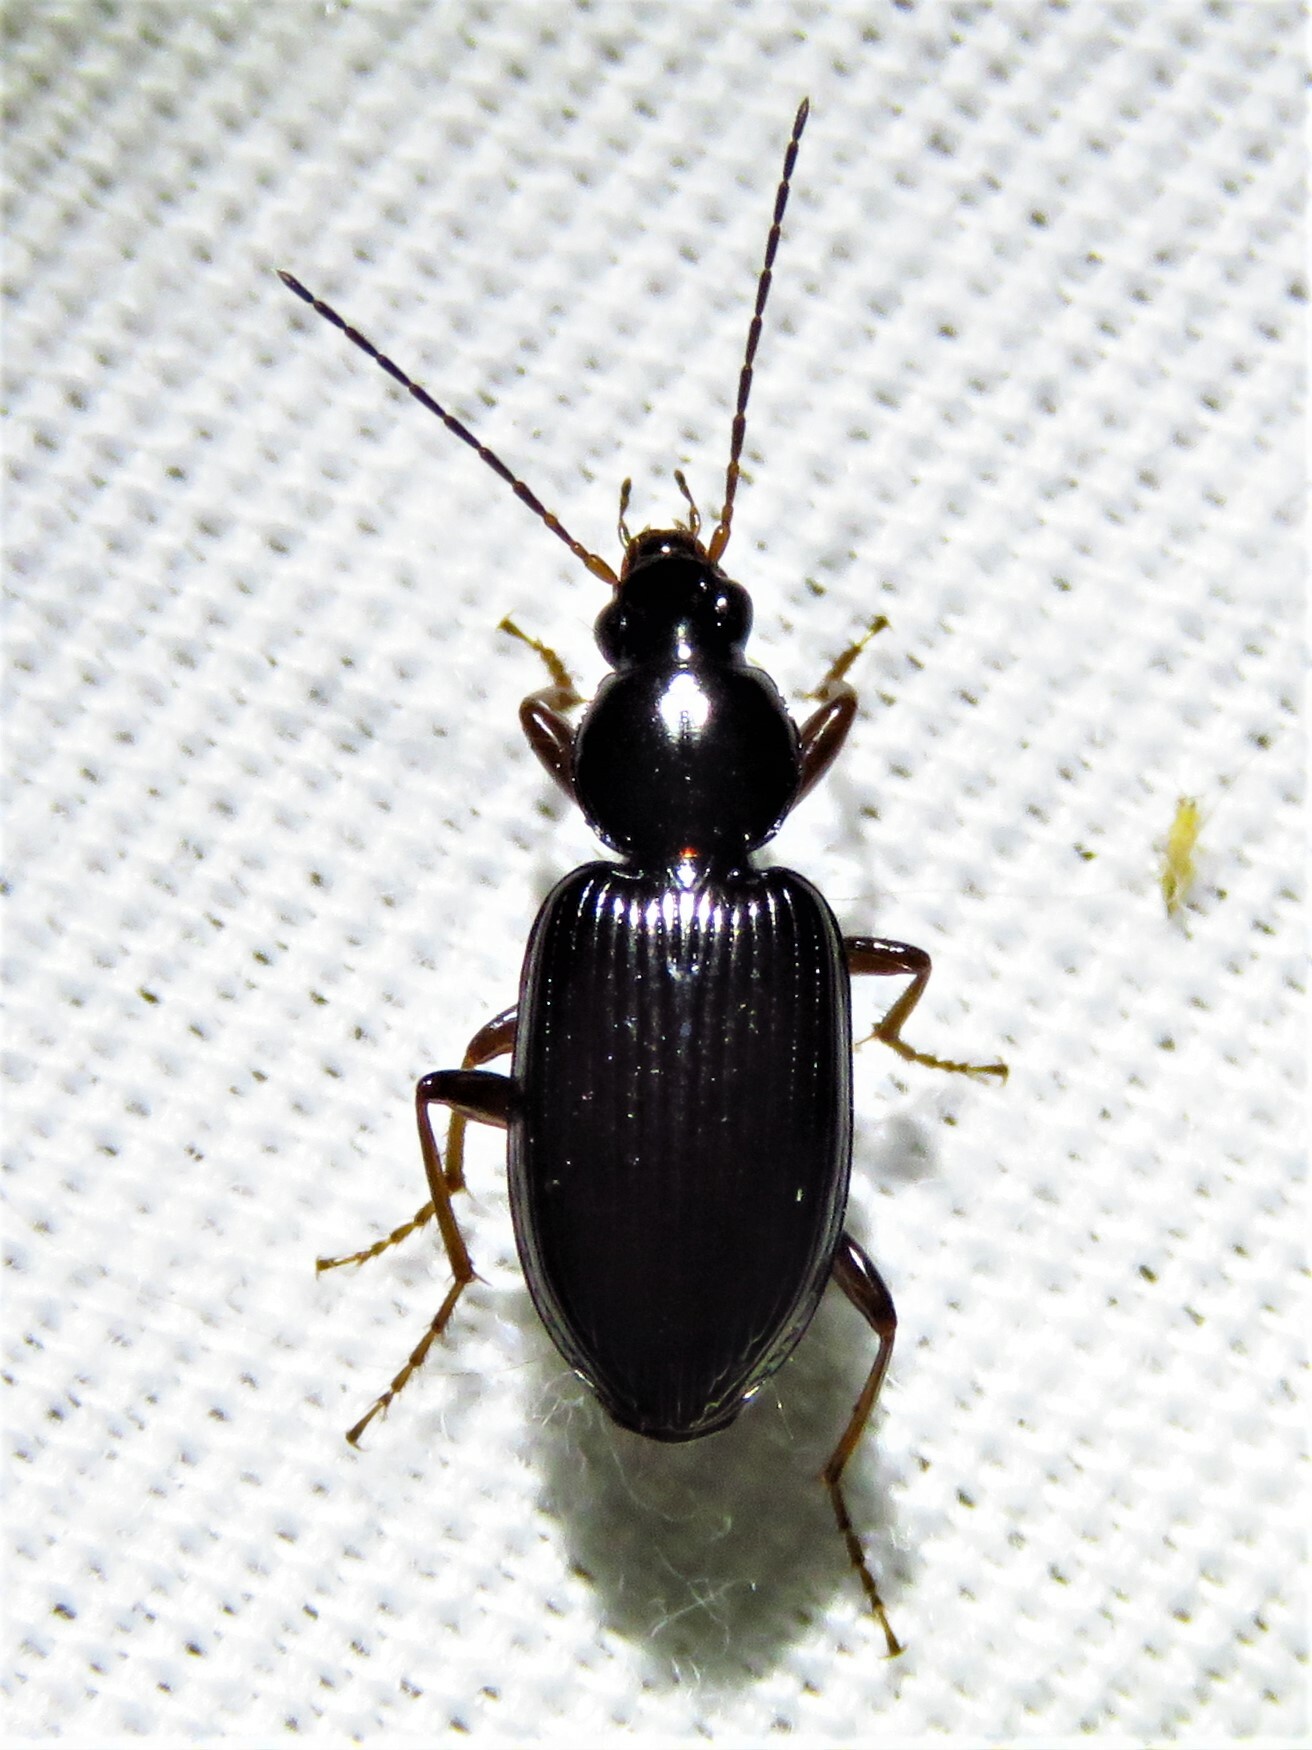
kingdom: Animalia
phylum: Arthropoda
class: Insecta
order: Coleoptera
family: Carabidae
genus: Agonum
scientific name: Agonum punctiforme
